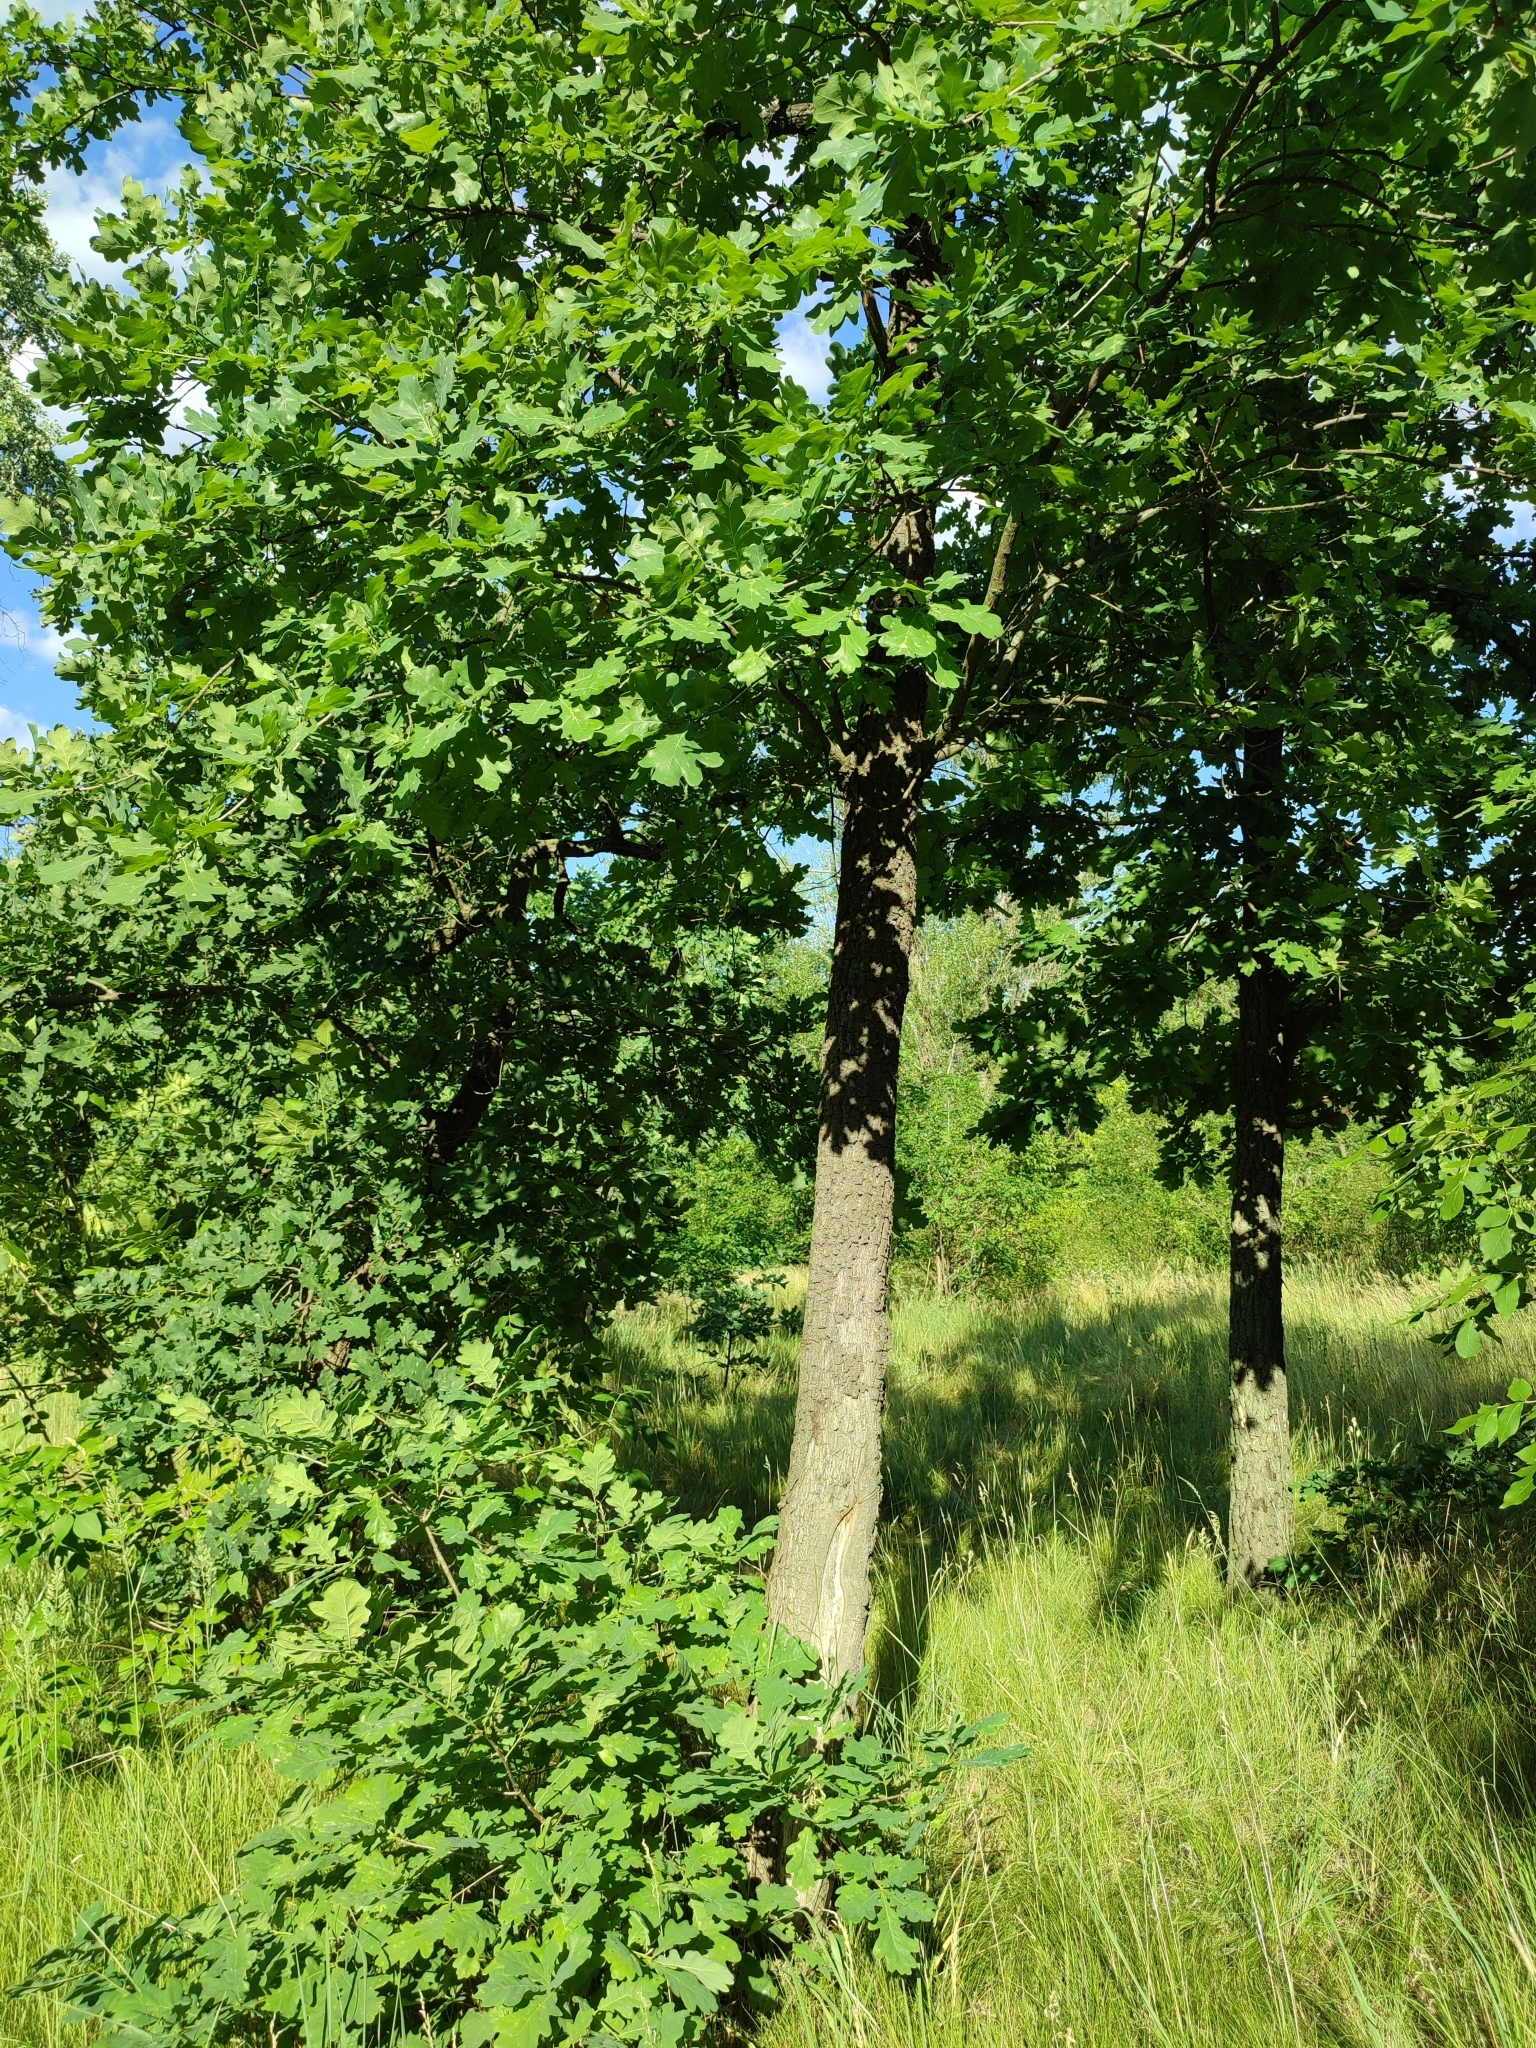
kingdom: Plantae
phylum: Tracheophyta
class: Magnoliopsida
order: Fagales
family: Fagaceae
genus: Quercus
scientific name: Quercus robur
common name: Pedunculate oak
